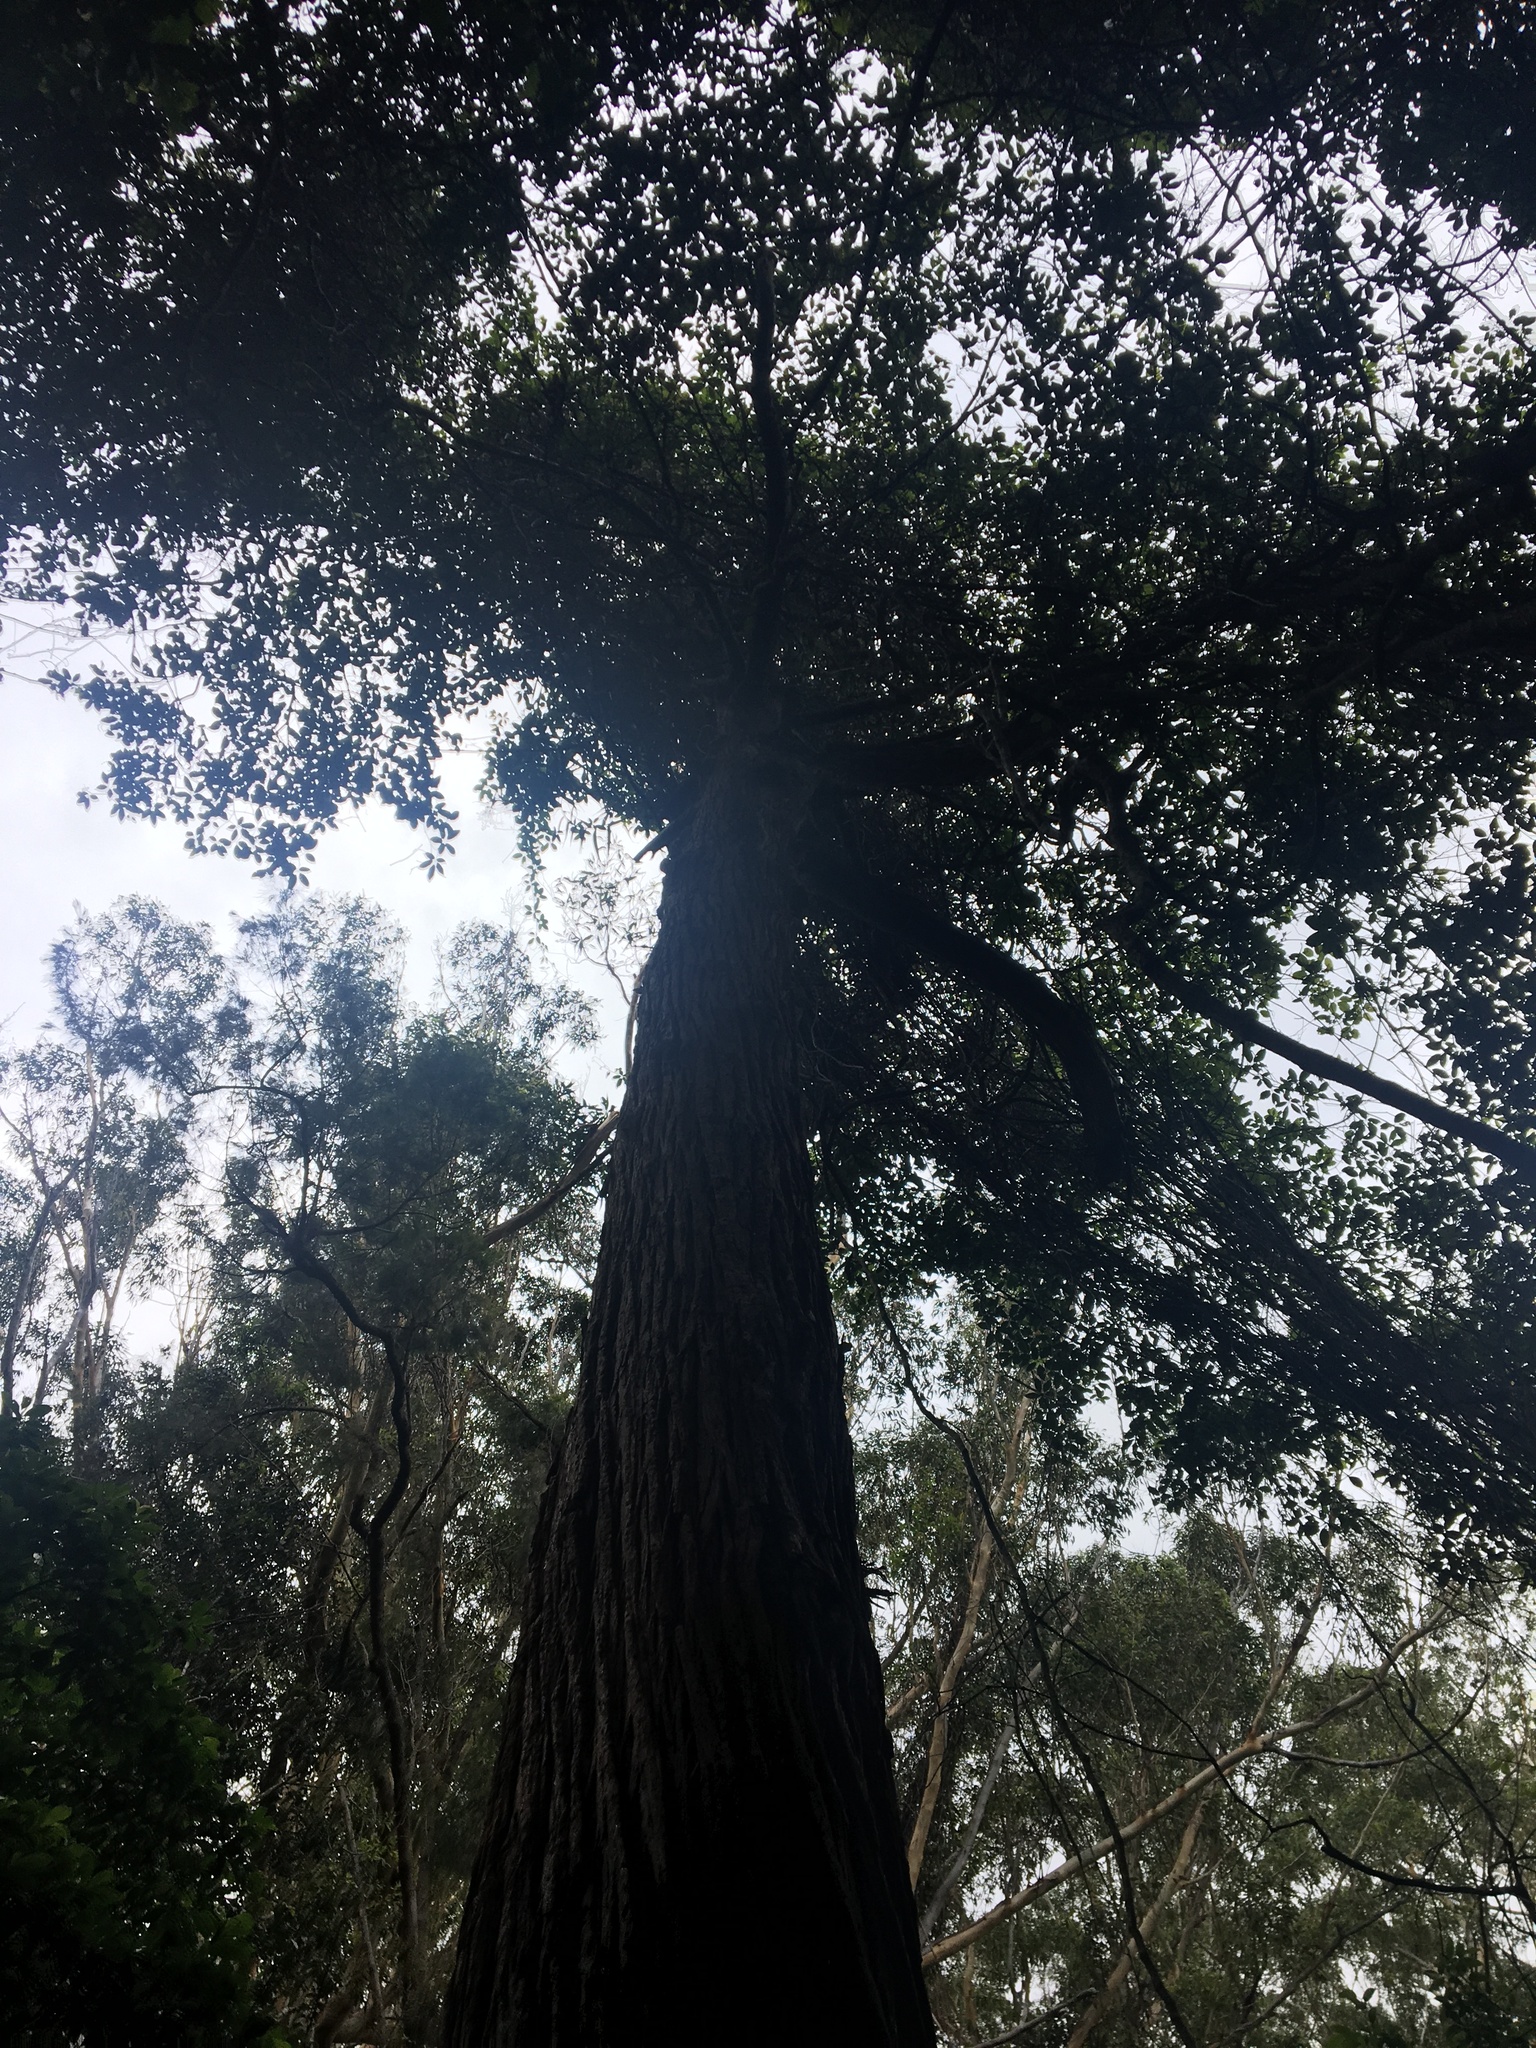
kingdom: Plantae
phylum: Tracheophyta
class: Pinopsida
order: Pinales
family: Cupressaceae
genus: Callitris
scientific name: Callitris macleayana
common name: Brush cypress pine
